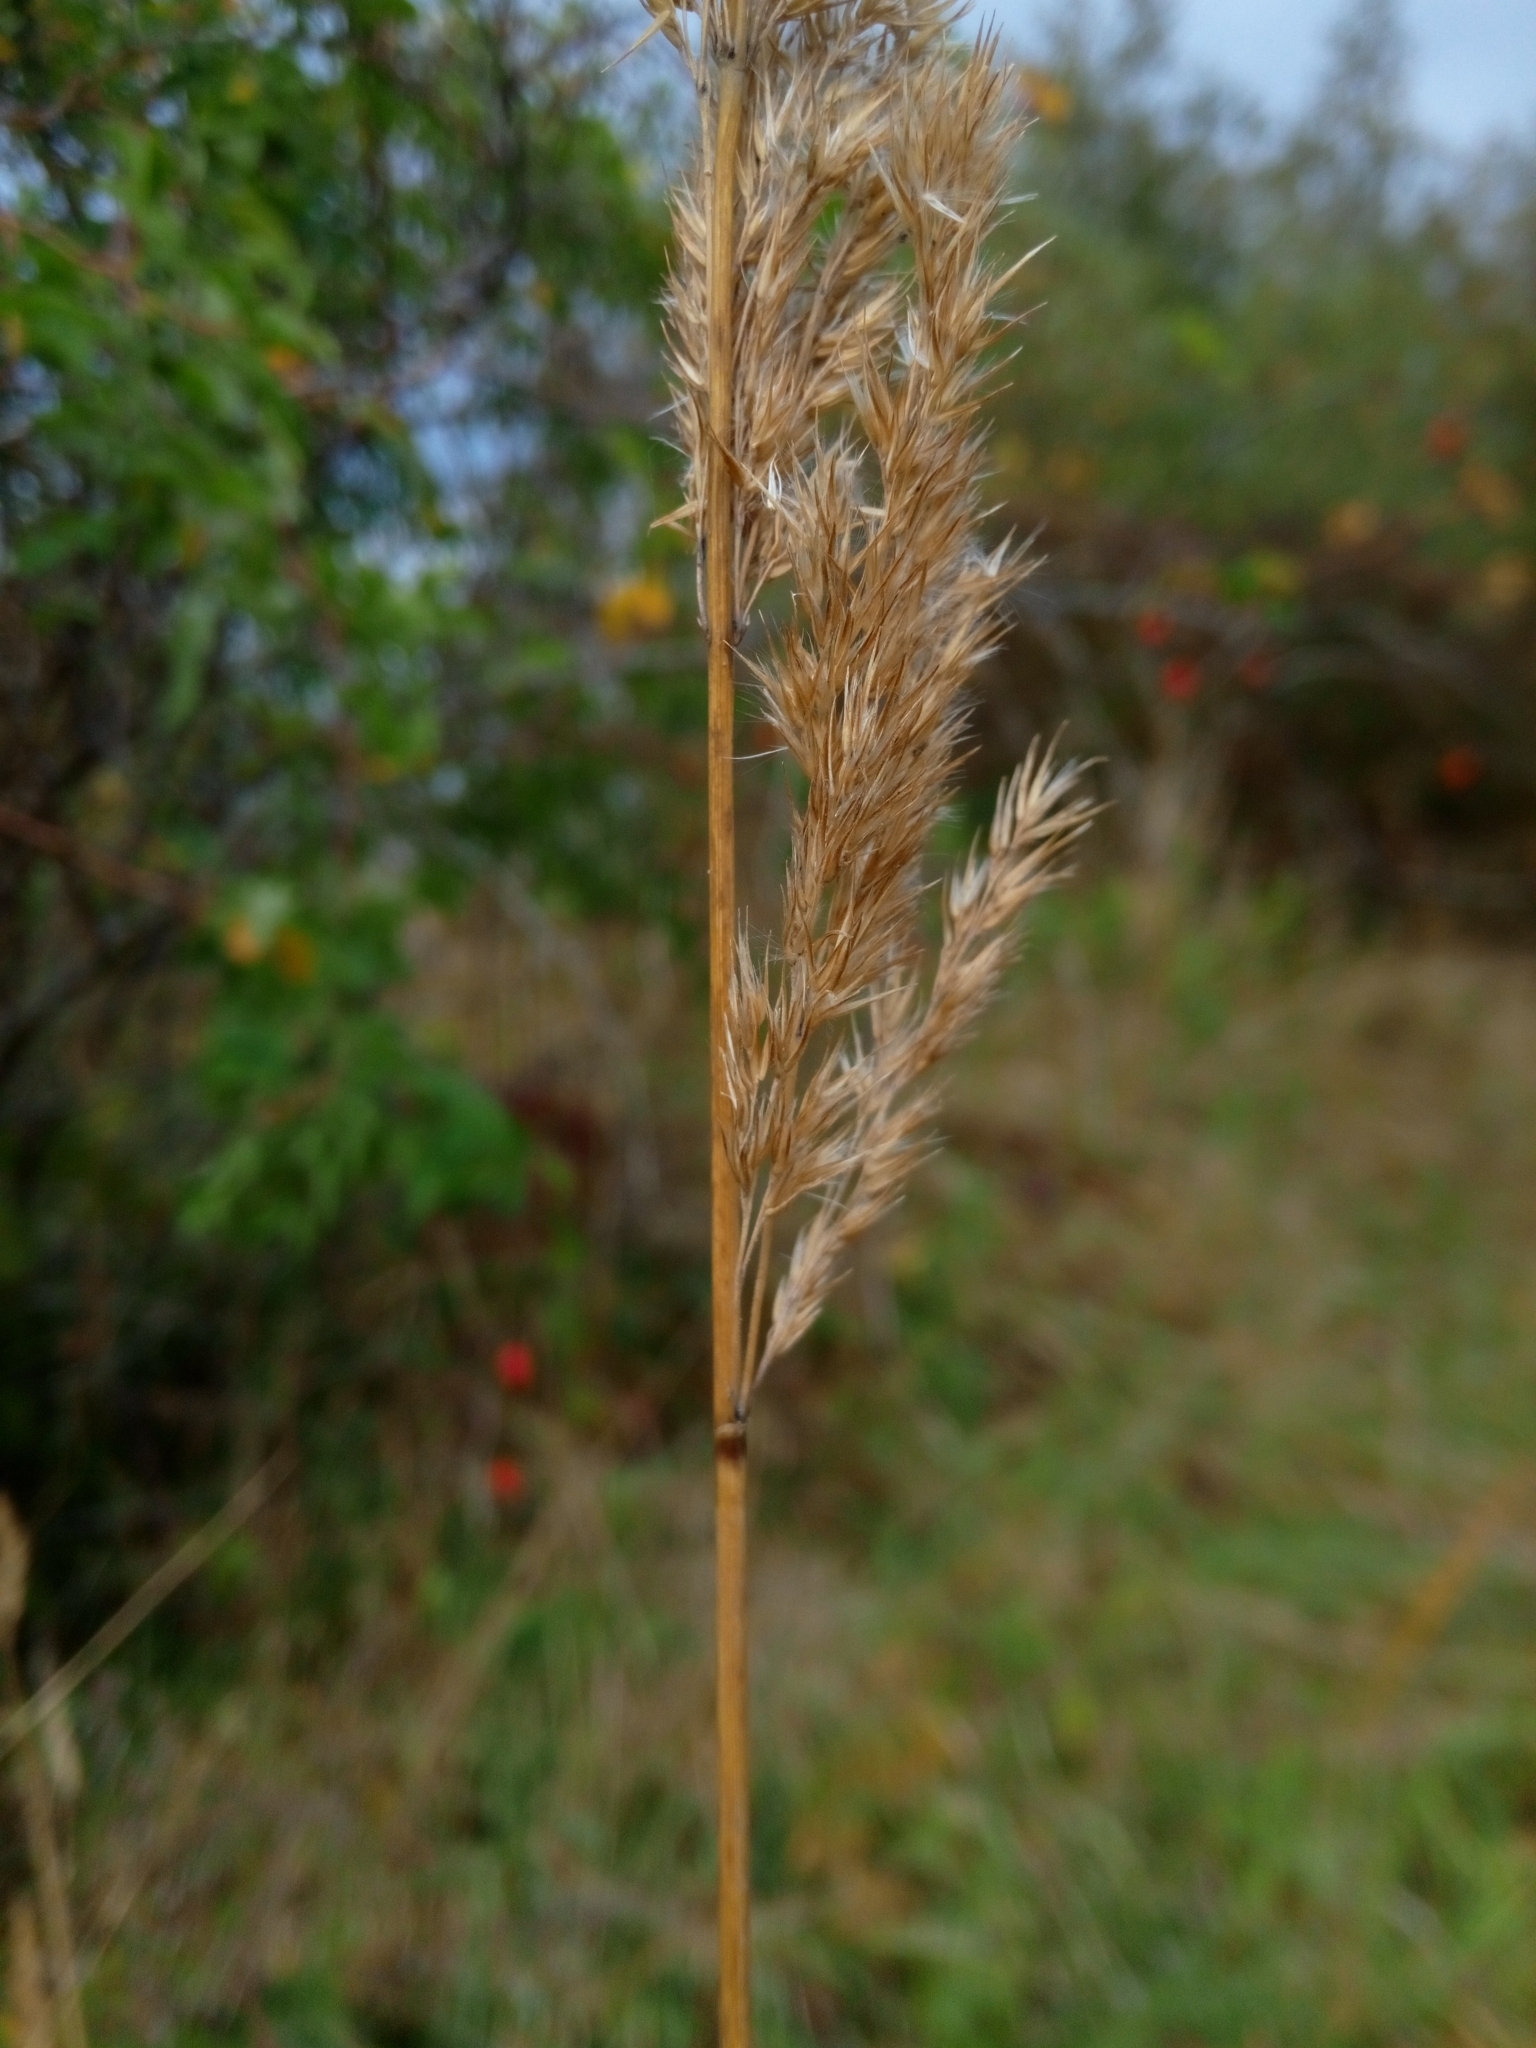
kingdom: Plantae
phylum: Tracheophyta
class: Liliopsida
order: Poales
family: Poaceae
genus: Calamagrostis
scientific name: Calamagrostis epigejos
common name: Wood small-reed
